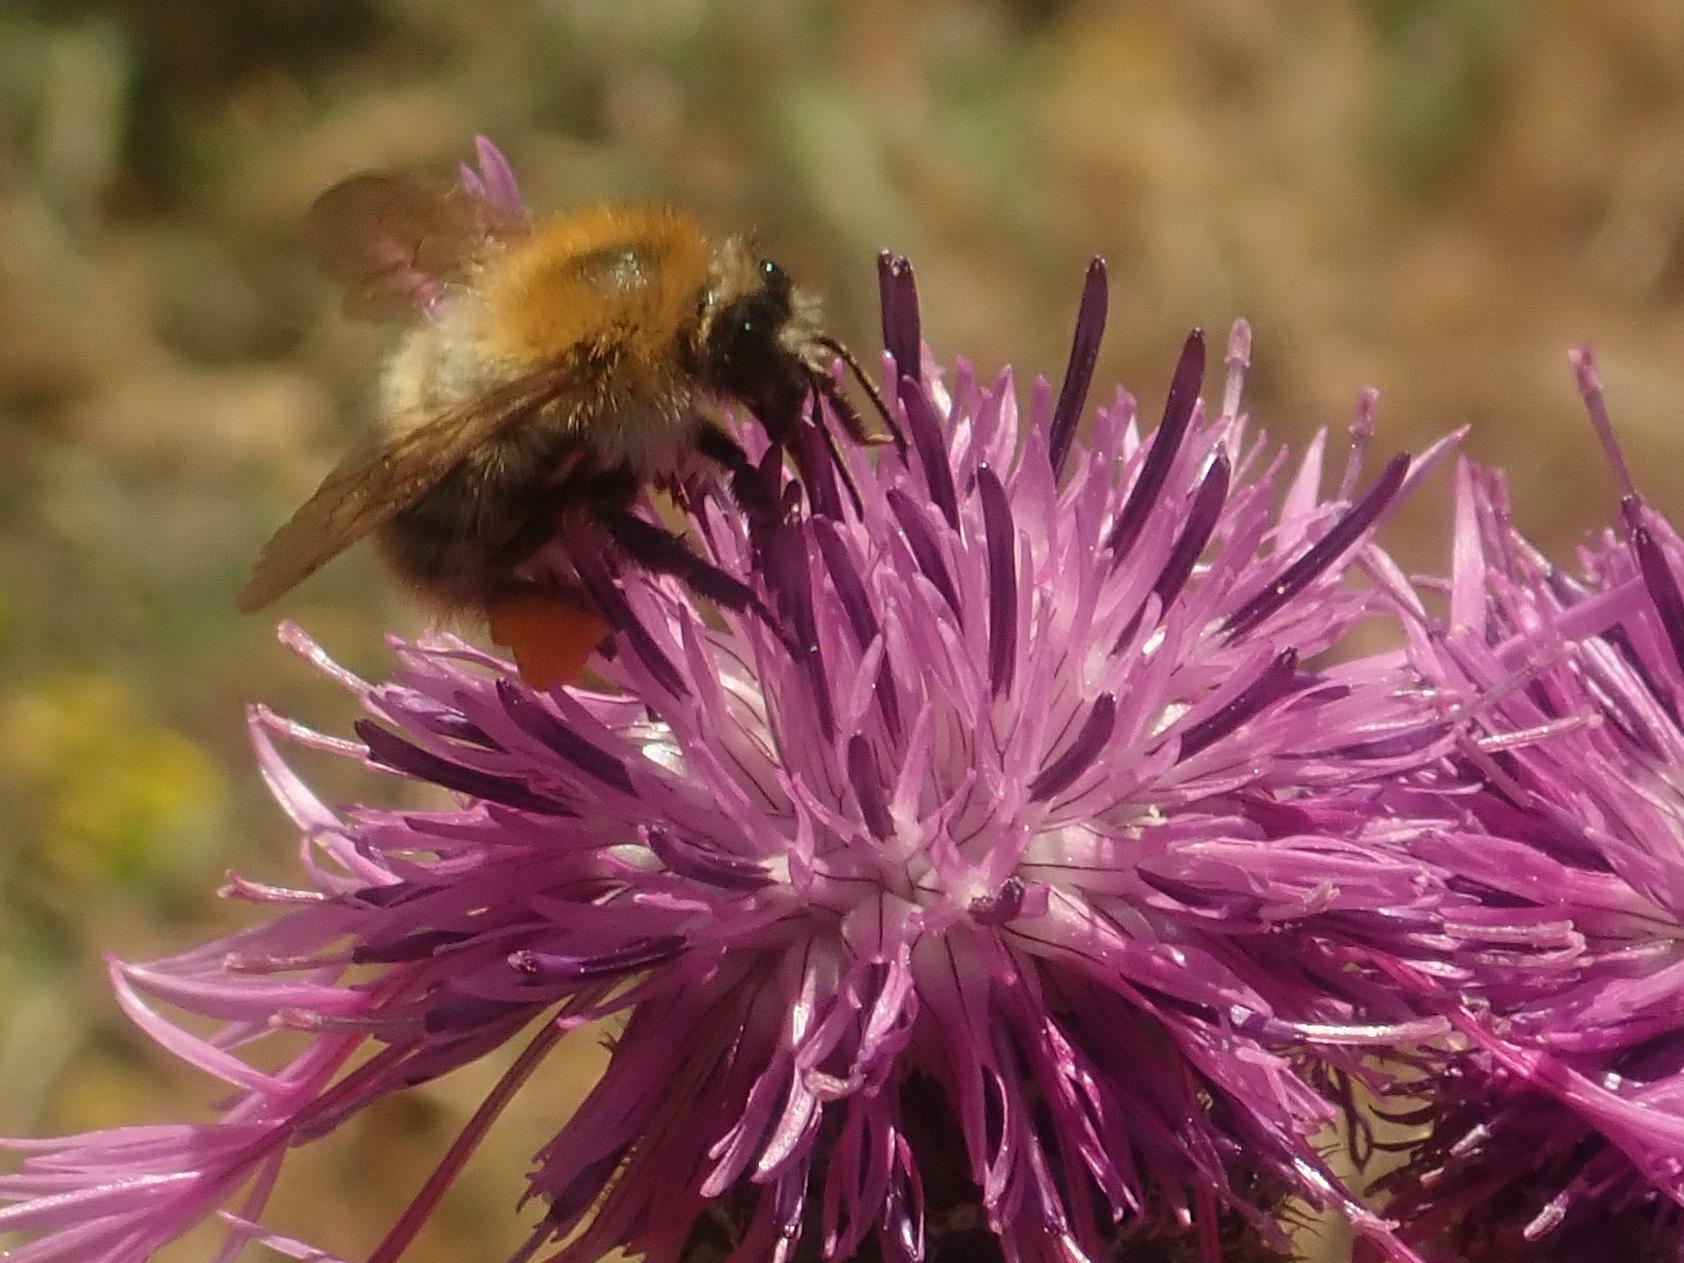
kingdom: Animalia
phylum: Arthropoda
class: Insecta
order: Hymenoptera
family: Apidae
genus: Bombus
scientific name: Bombus pascuorum
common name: Common carder bee
